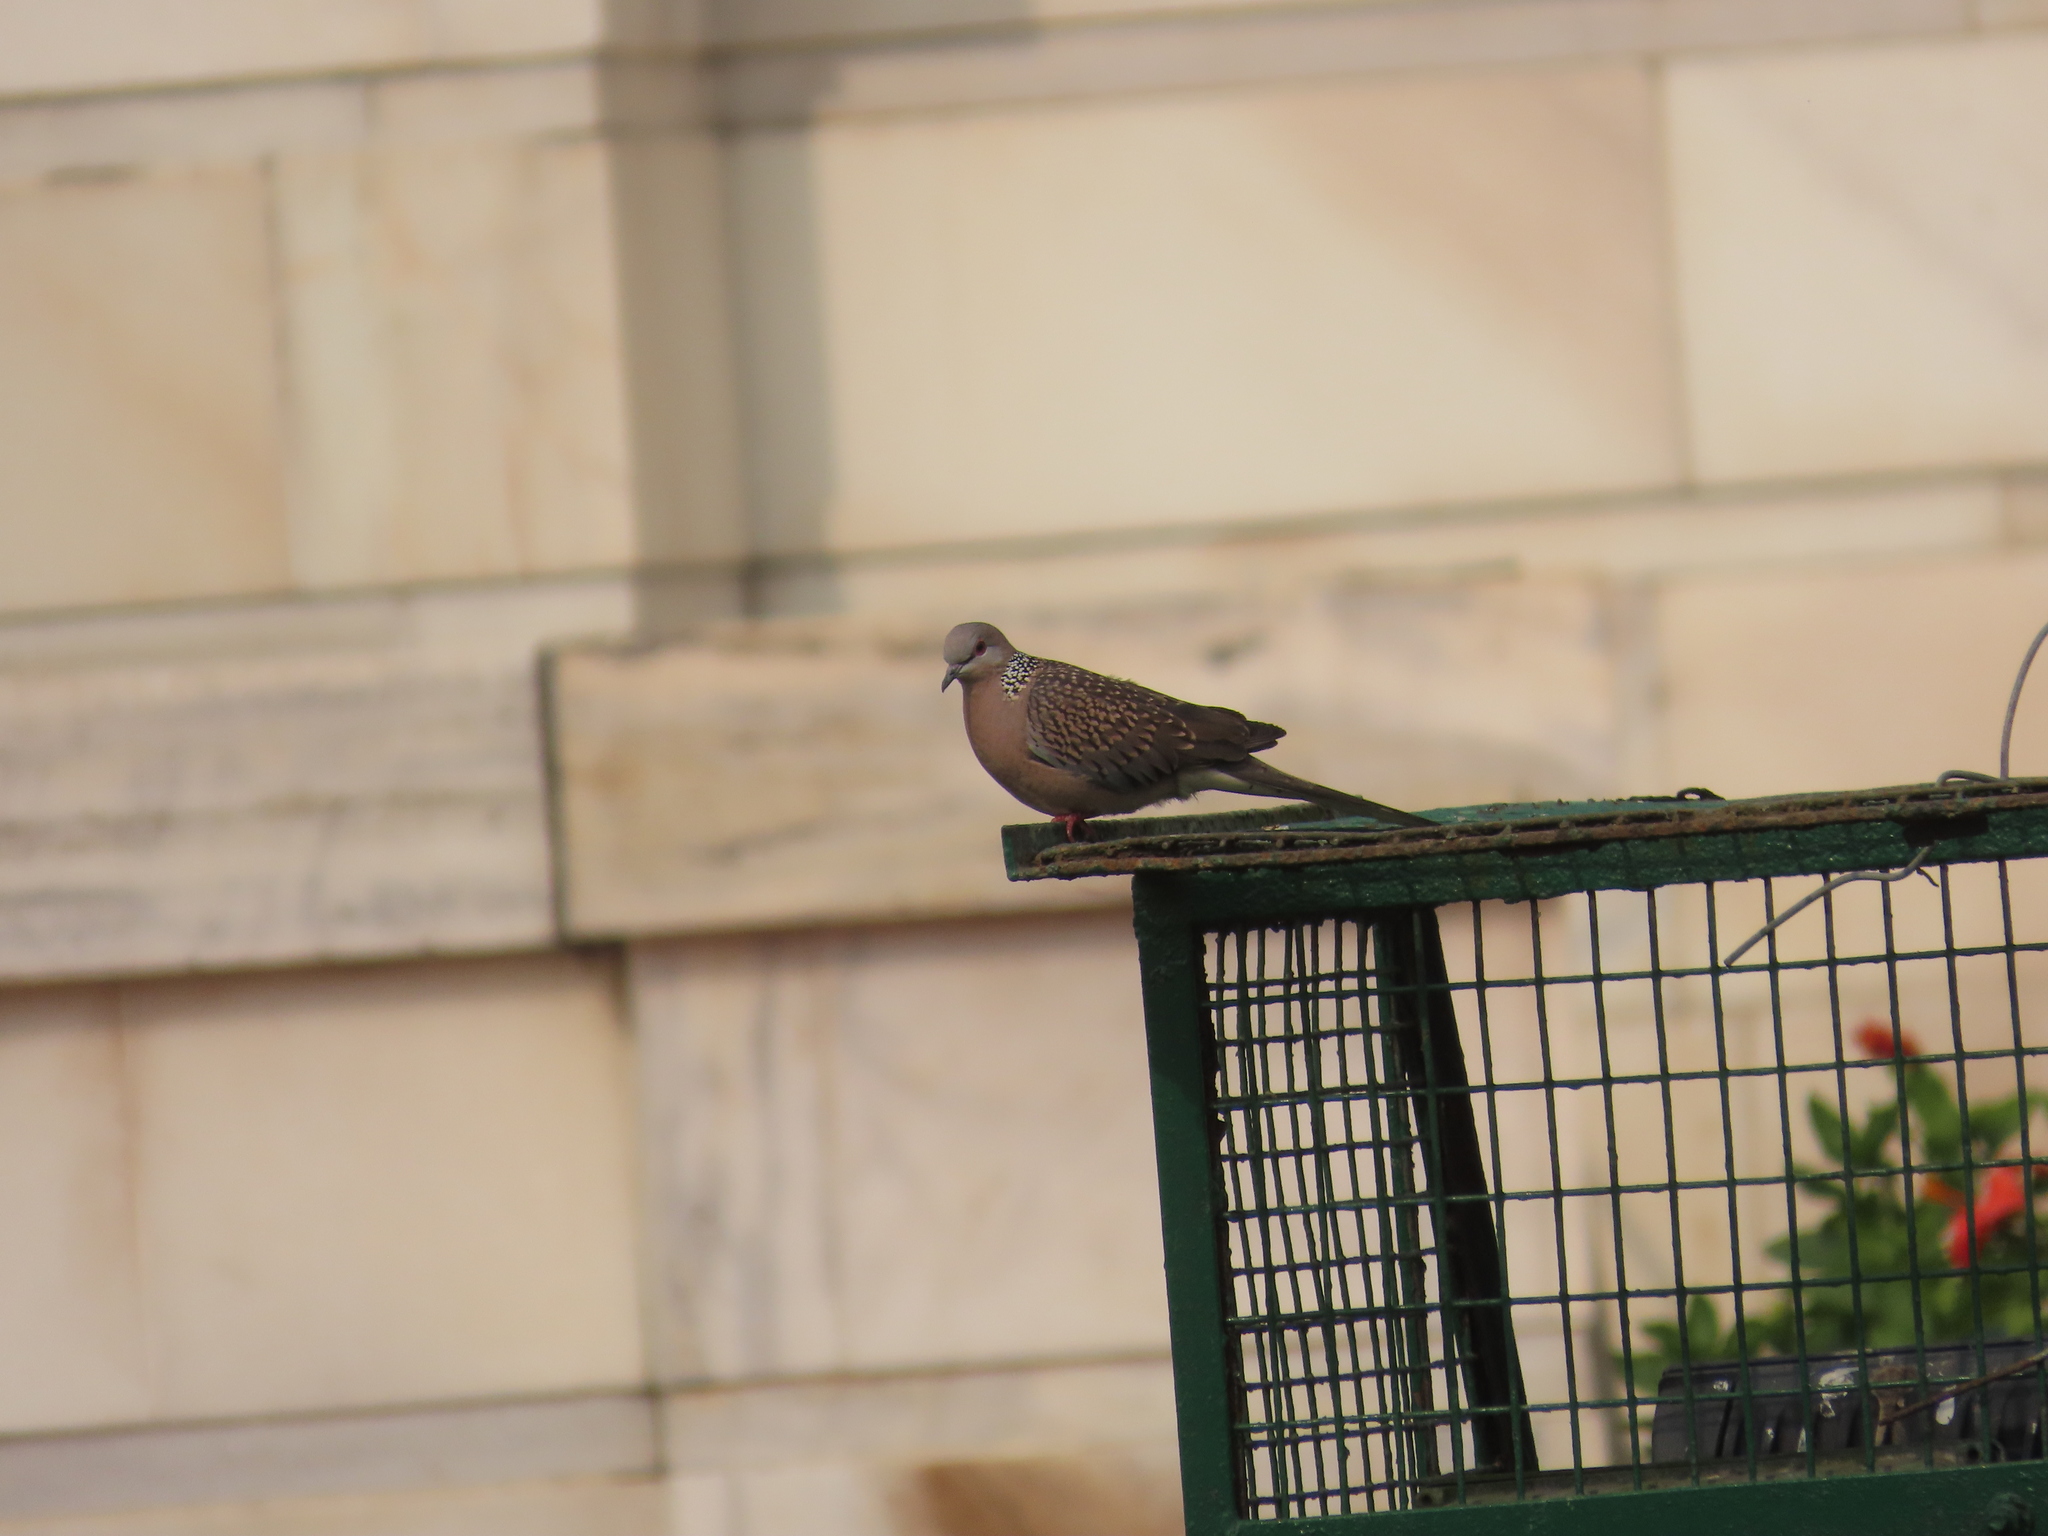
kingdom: Animalia
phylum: Chordata
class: Aves
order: Columbiformes
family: Columbidae
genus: Spilopelia
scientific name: Spilopelia chinensis
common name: Spotted dove
